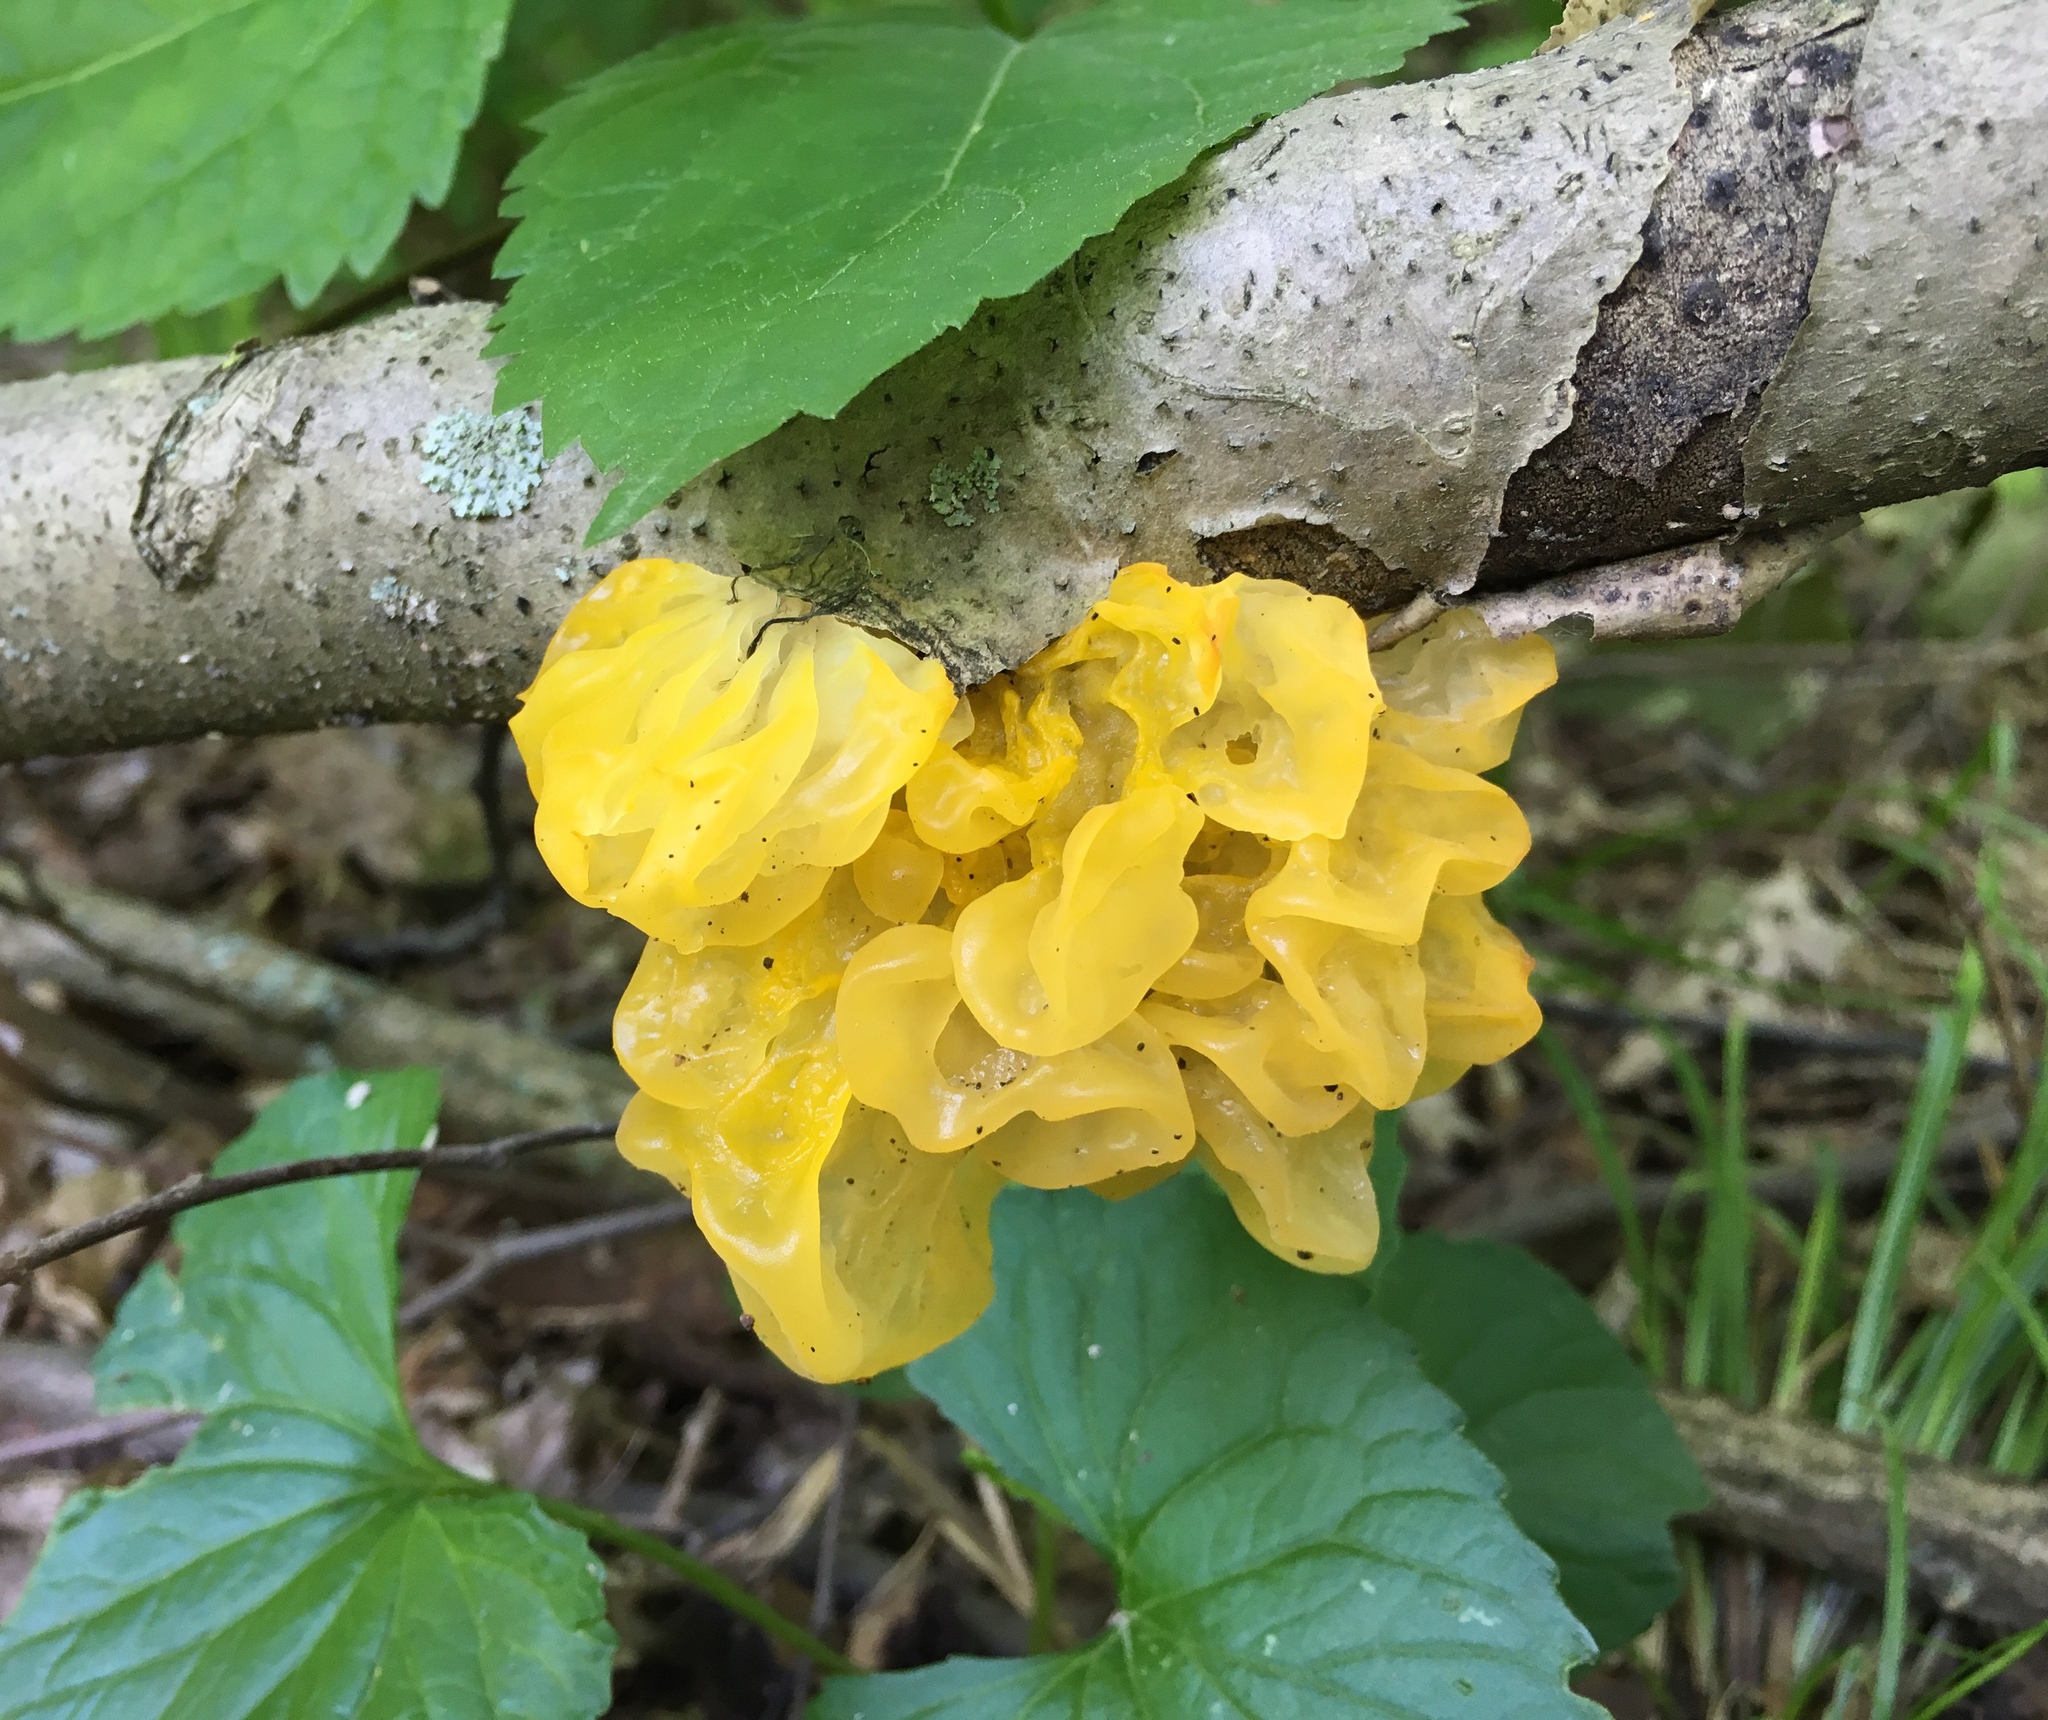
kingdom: Fungi
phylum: Basidiomycota
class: Tremellomycetes
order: Tremellales
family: Tremellaceae
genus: Tremella
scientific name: Tremella mesenterica
